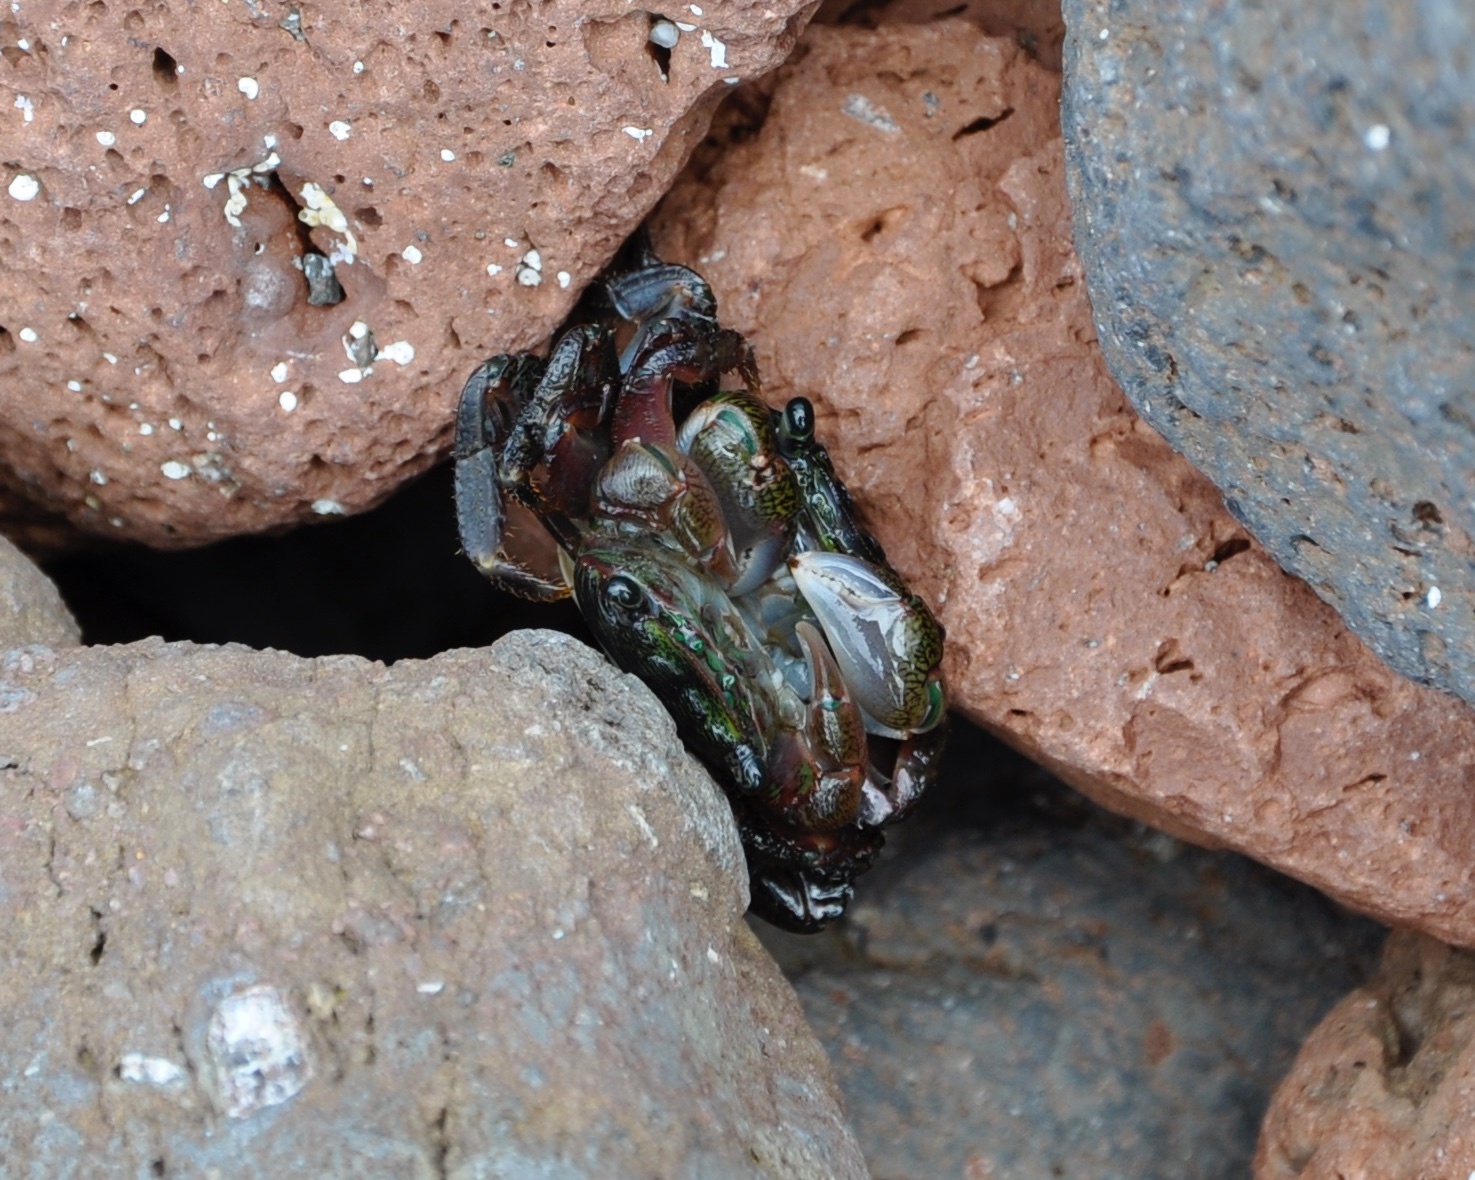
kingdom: Animalia
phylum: Arthropoda
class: Malacostraca
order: Decapoda
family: Grapsidae
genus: Pachygrapsus
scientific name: Pachygrapsus crassipes
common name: Striped shore crab
